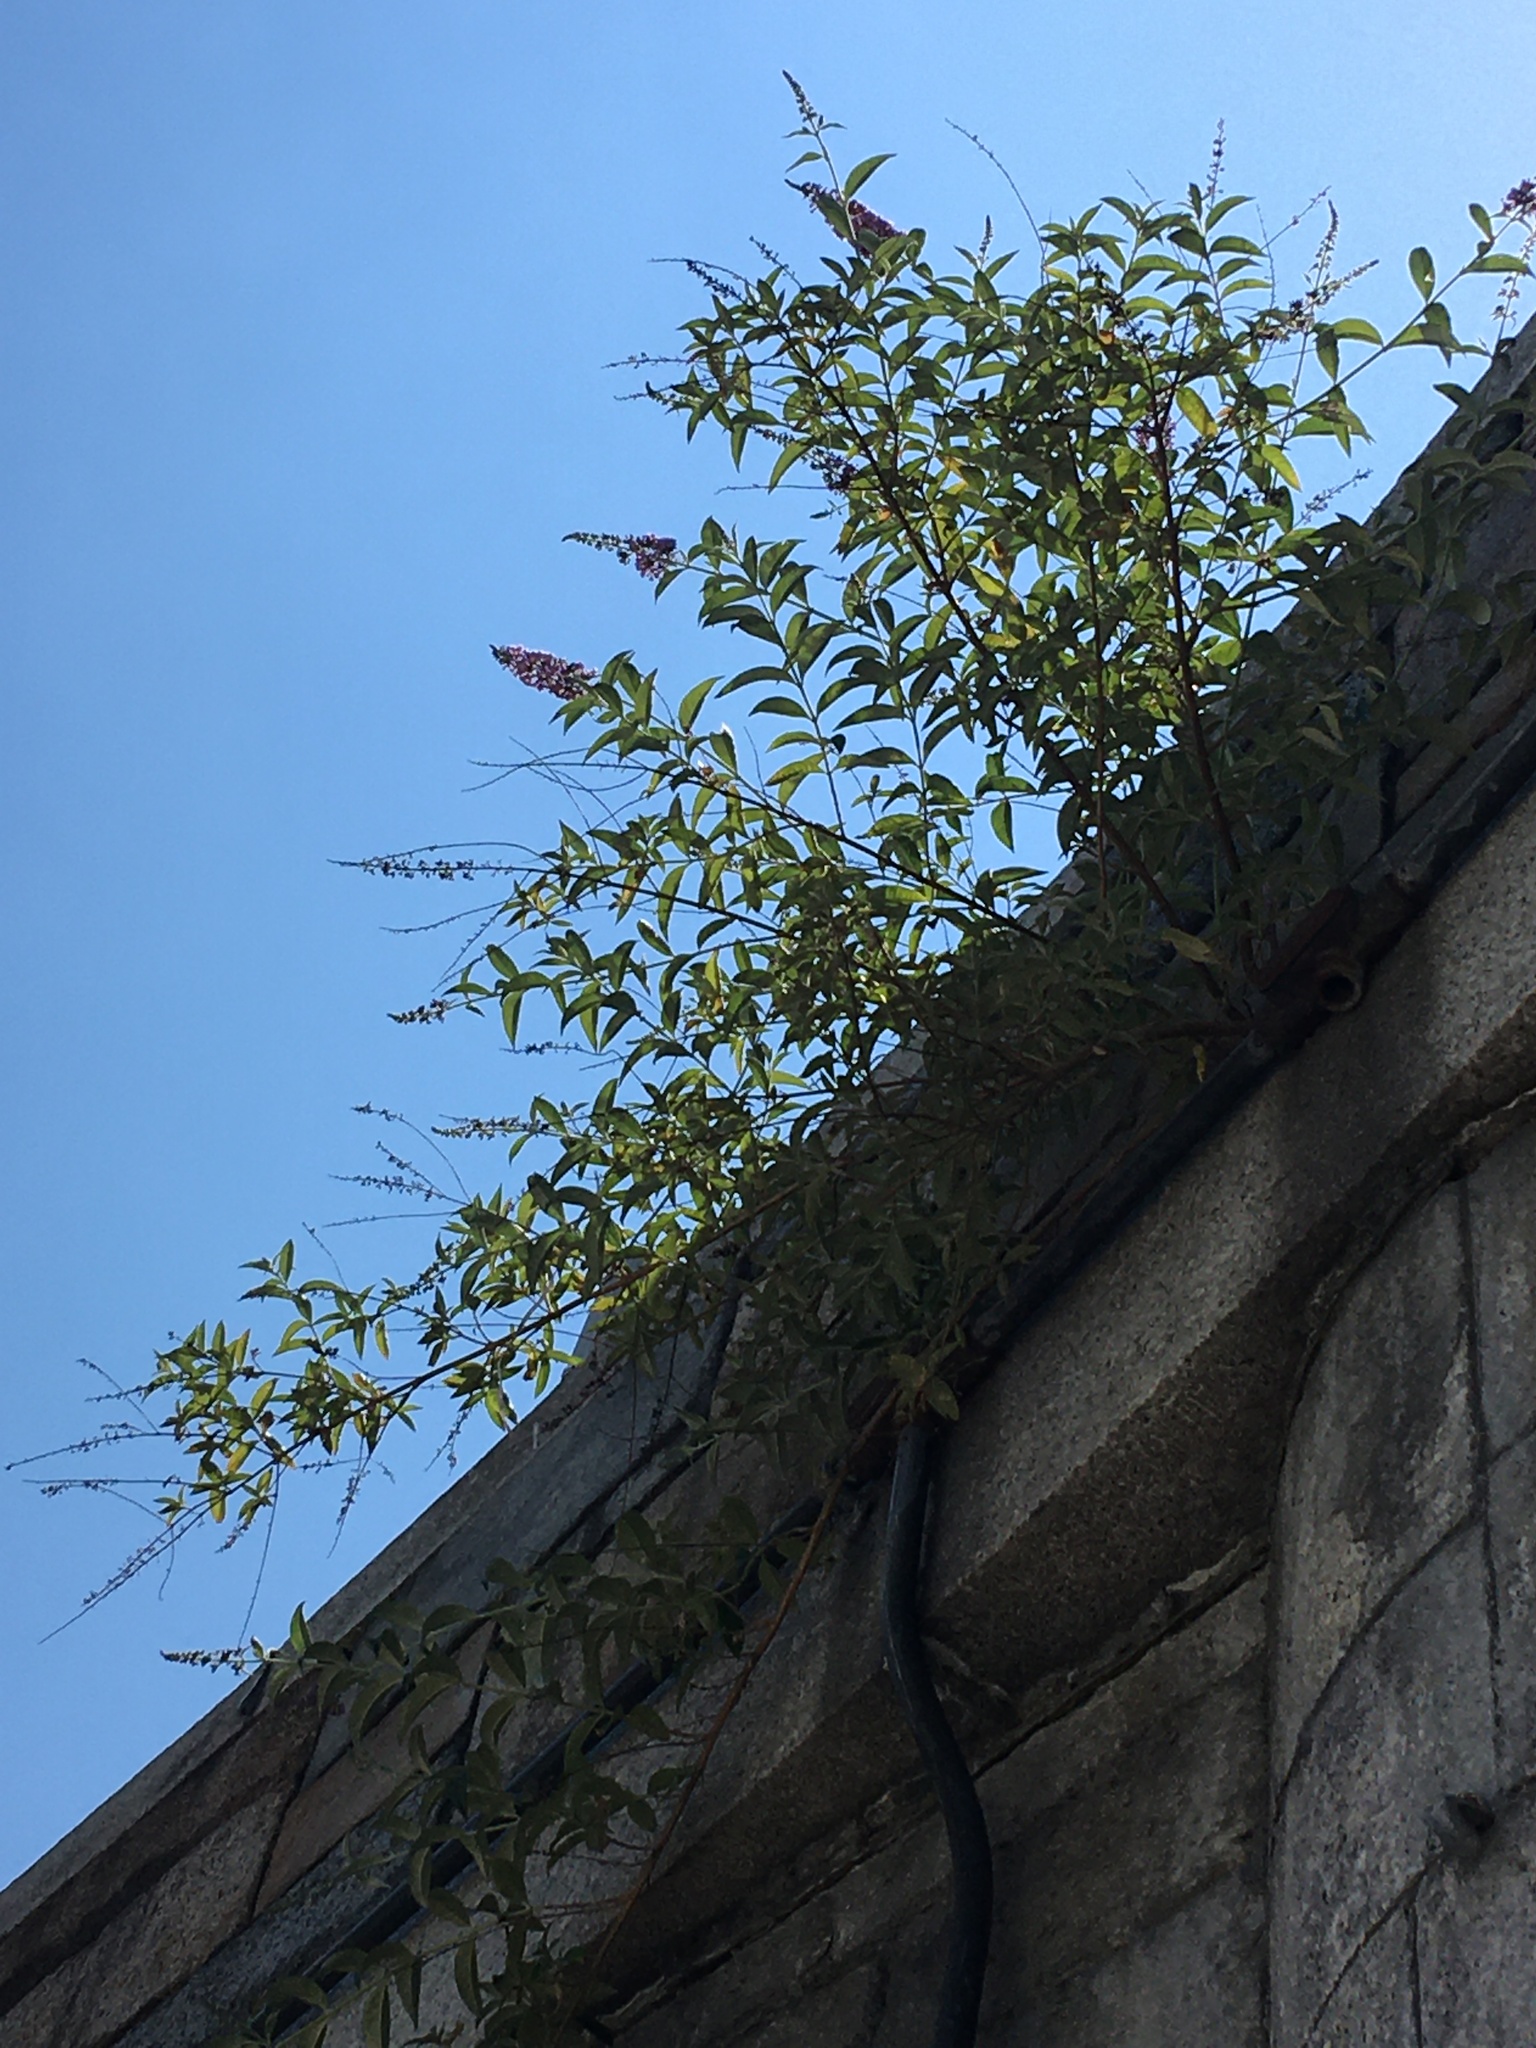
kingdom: Plantae
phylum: Tracheophyta
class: Magnoliopsida
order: Lamiales
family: Scrophulariaceae
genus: Buddleja
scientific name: Buddleja davidii
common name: Butterfly-bush
